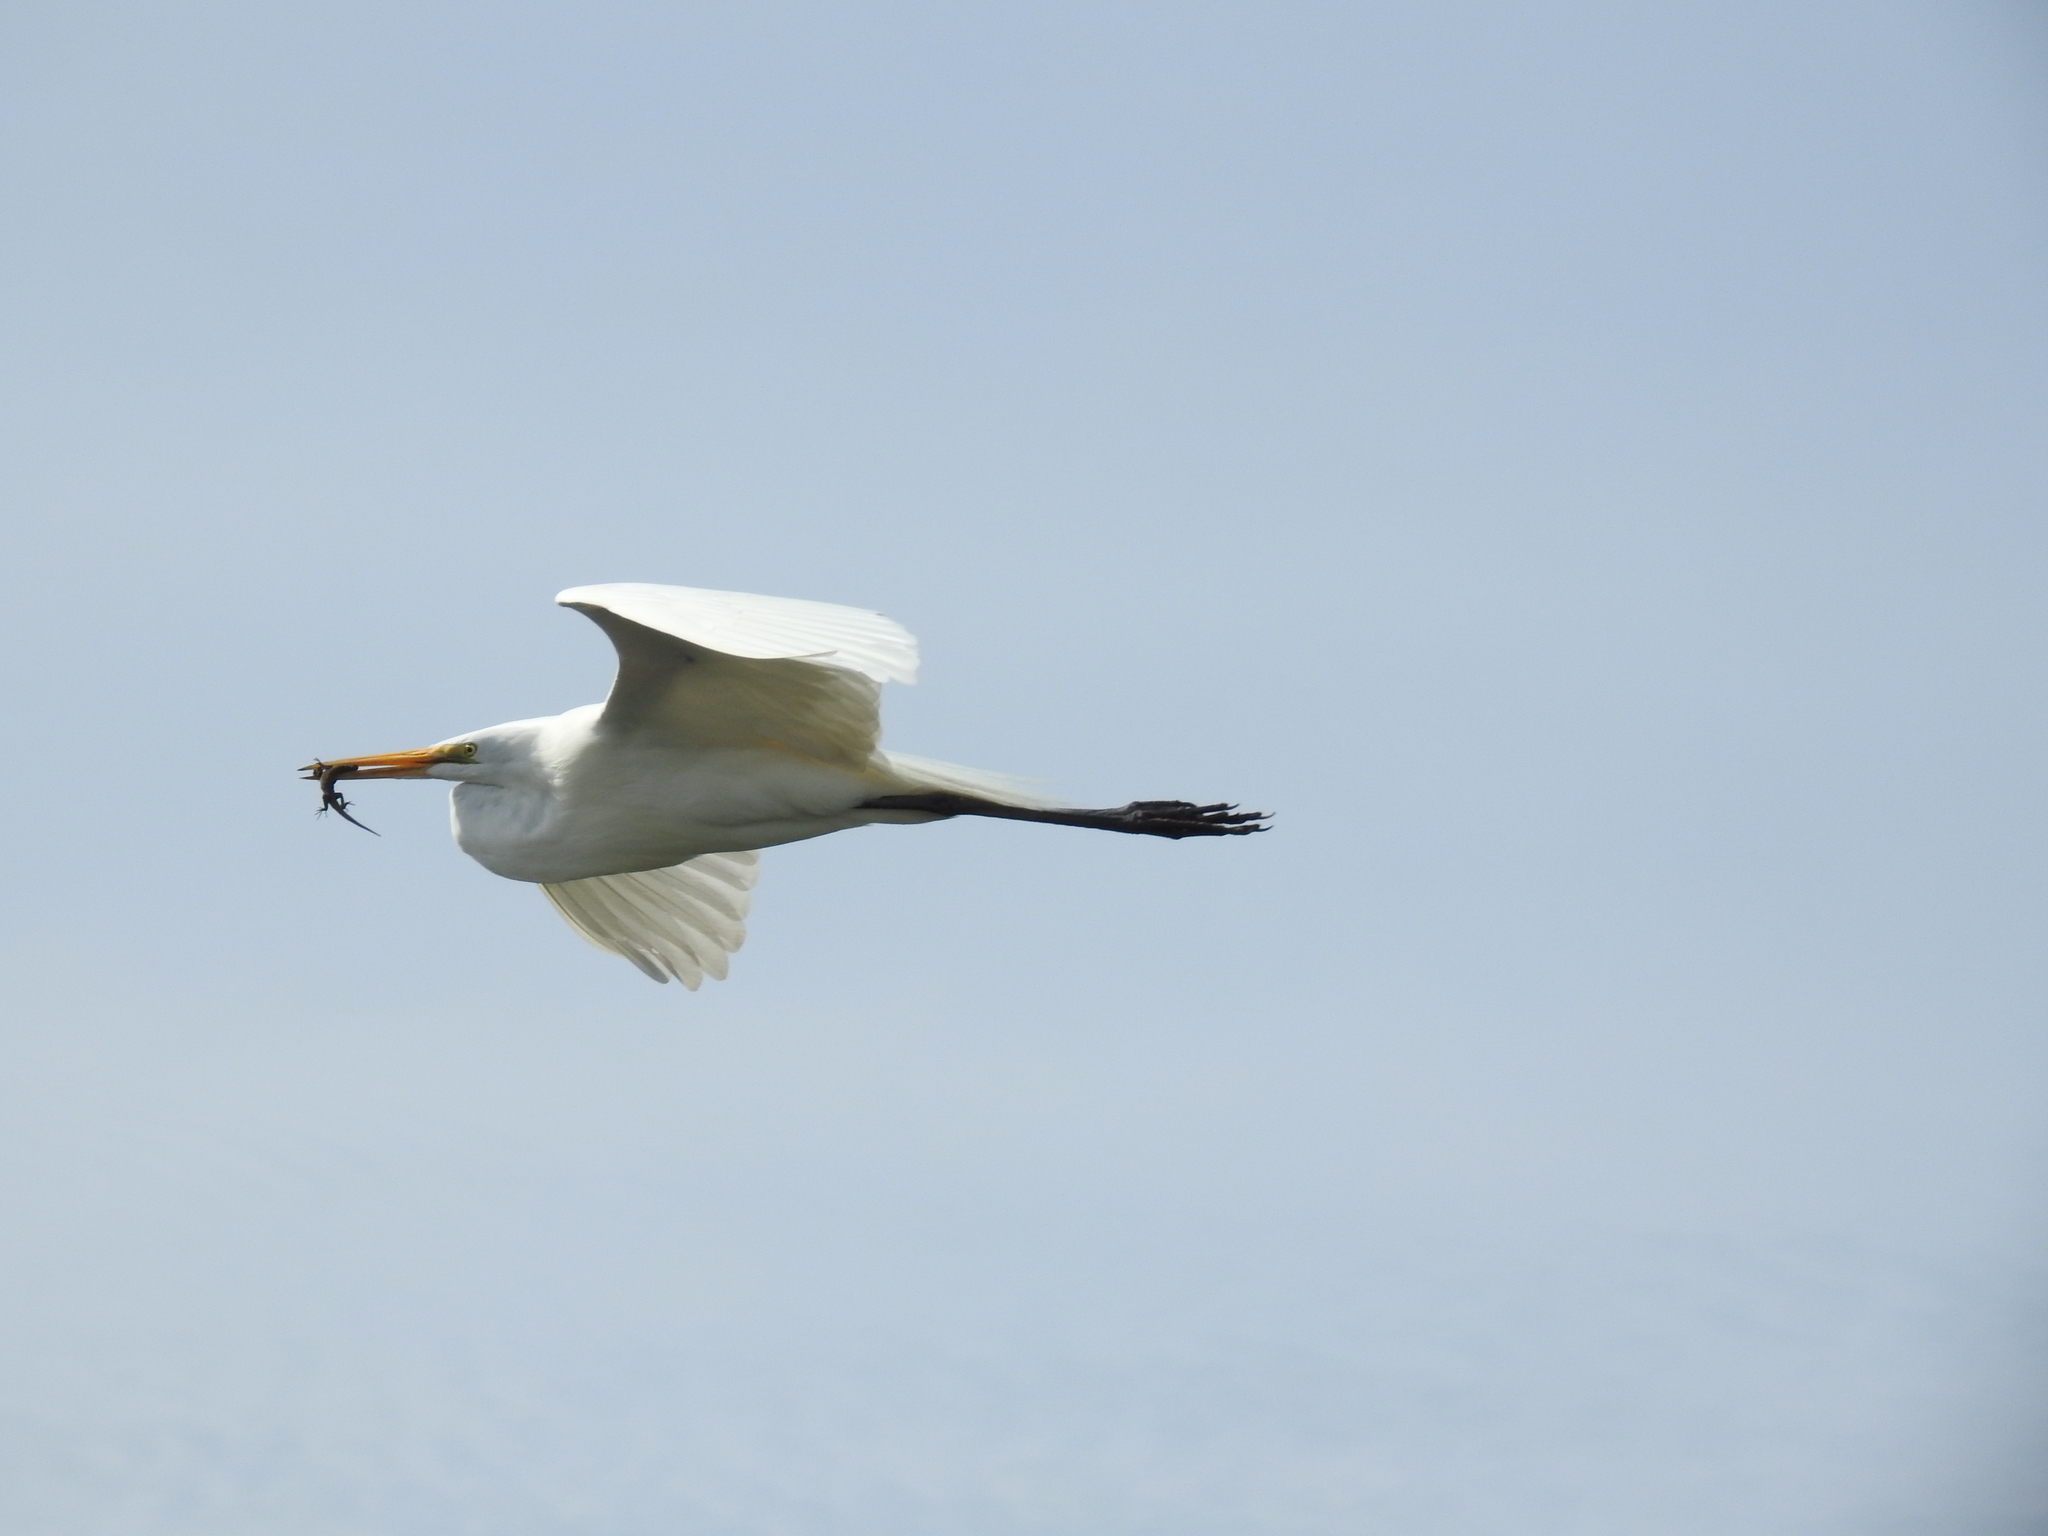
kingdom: Animalia
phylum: Chordata
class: Aves
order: Pelecaniformes
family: Ardeidae
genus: Ardea
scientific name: Ardea alba
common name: Great egret
